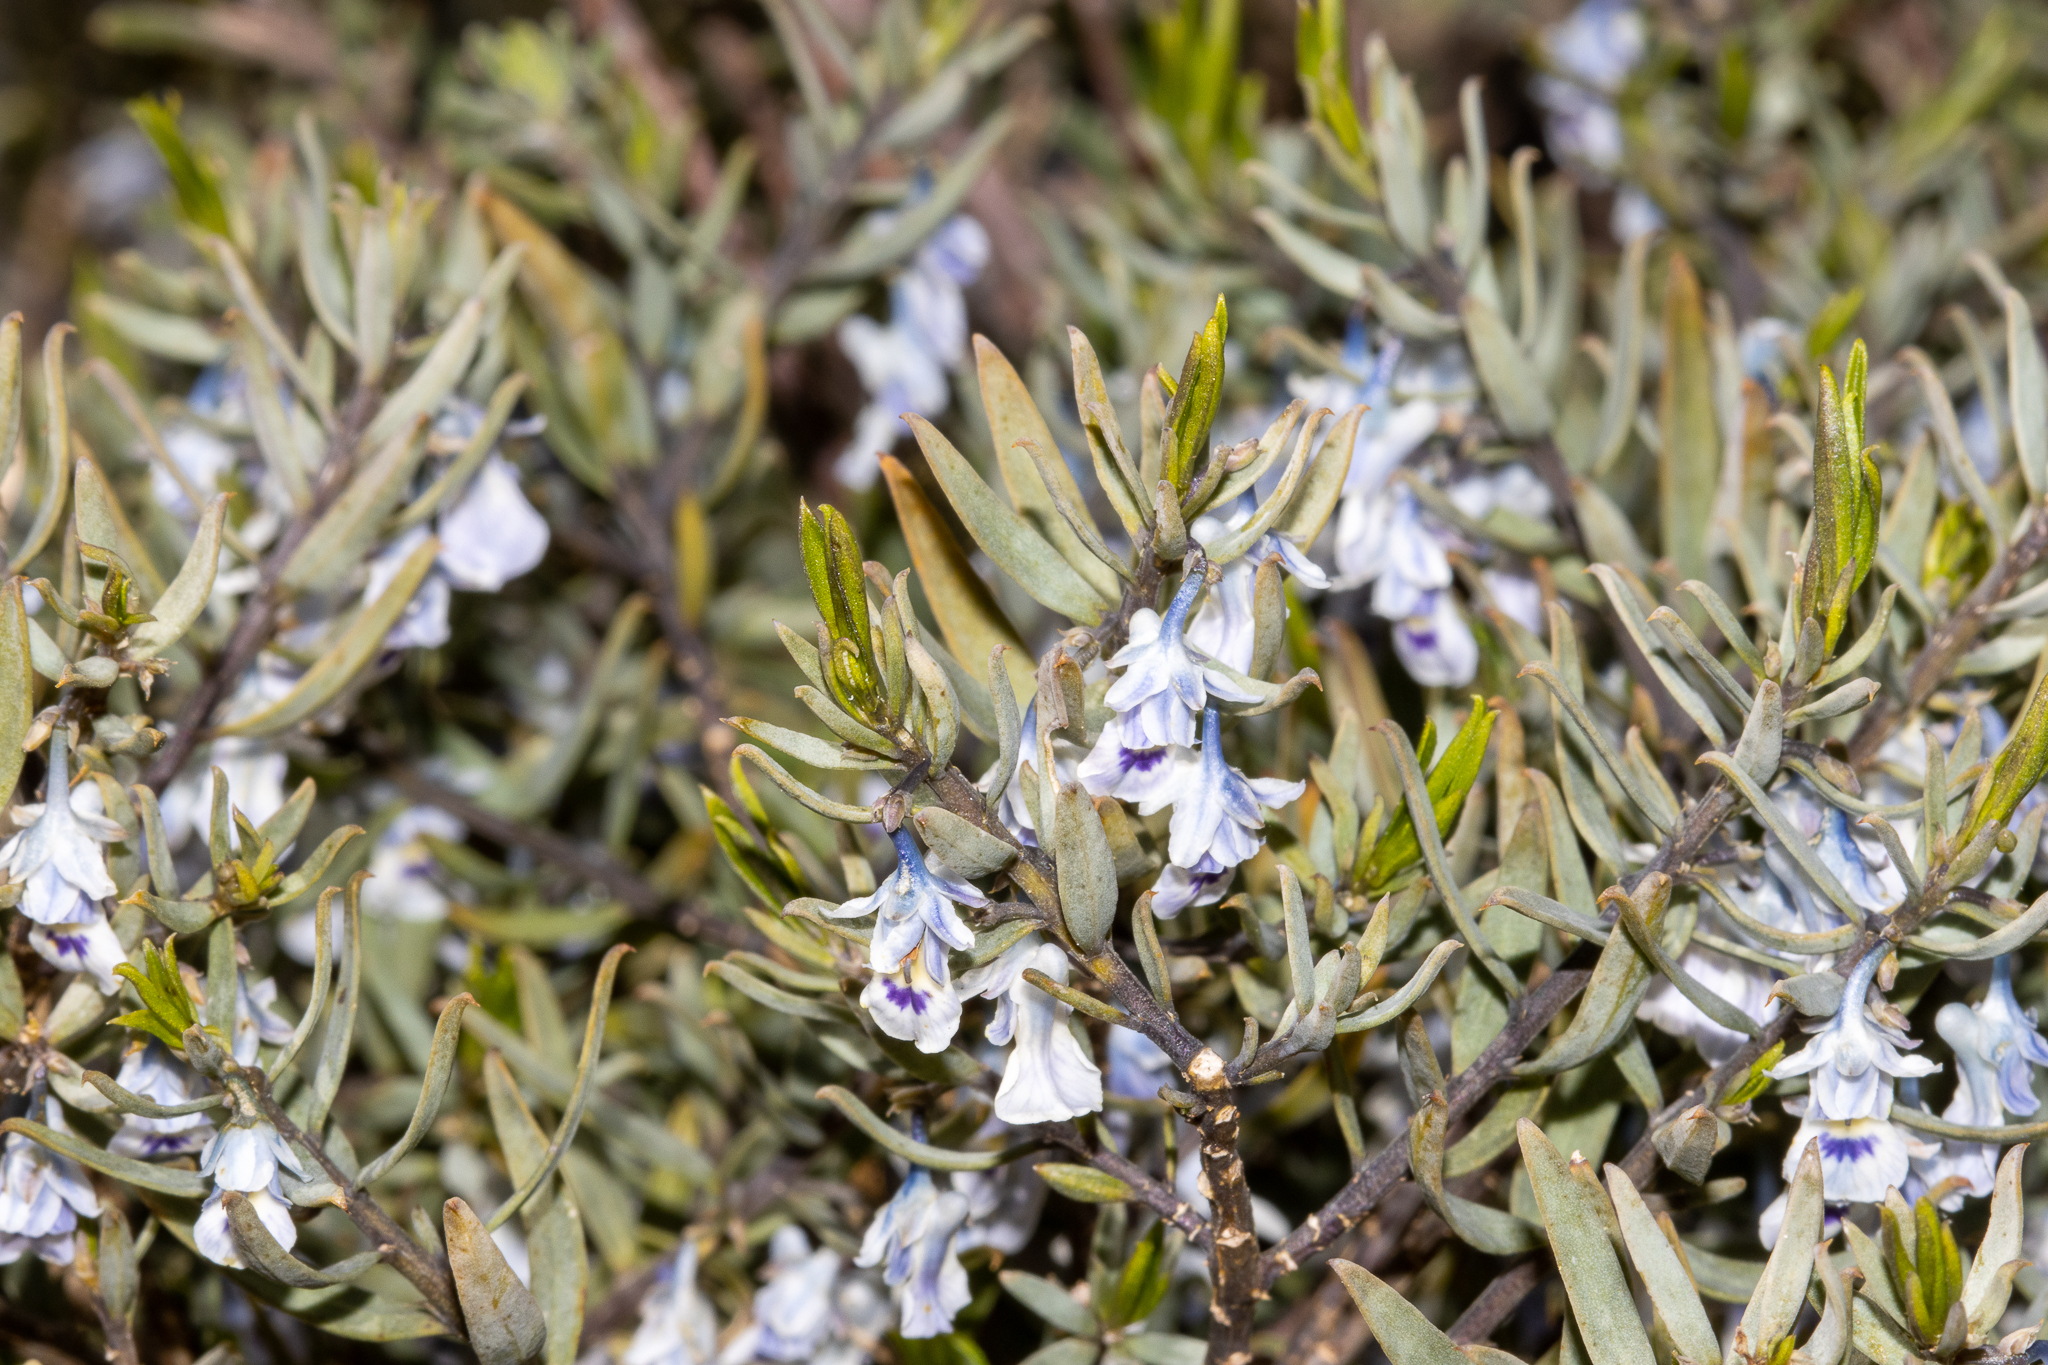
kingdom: Plantae
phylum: Tracheophyta
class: Magnoliopsida
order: Malpighiales
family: Violaceae
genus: Pigea
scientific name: Pigea floribunda
